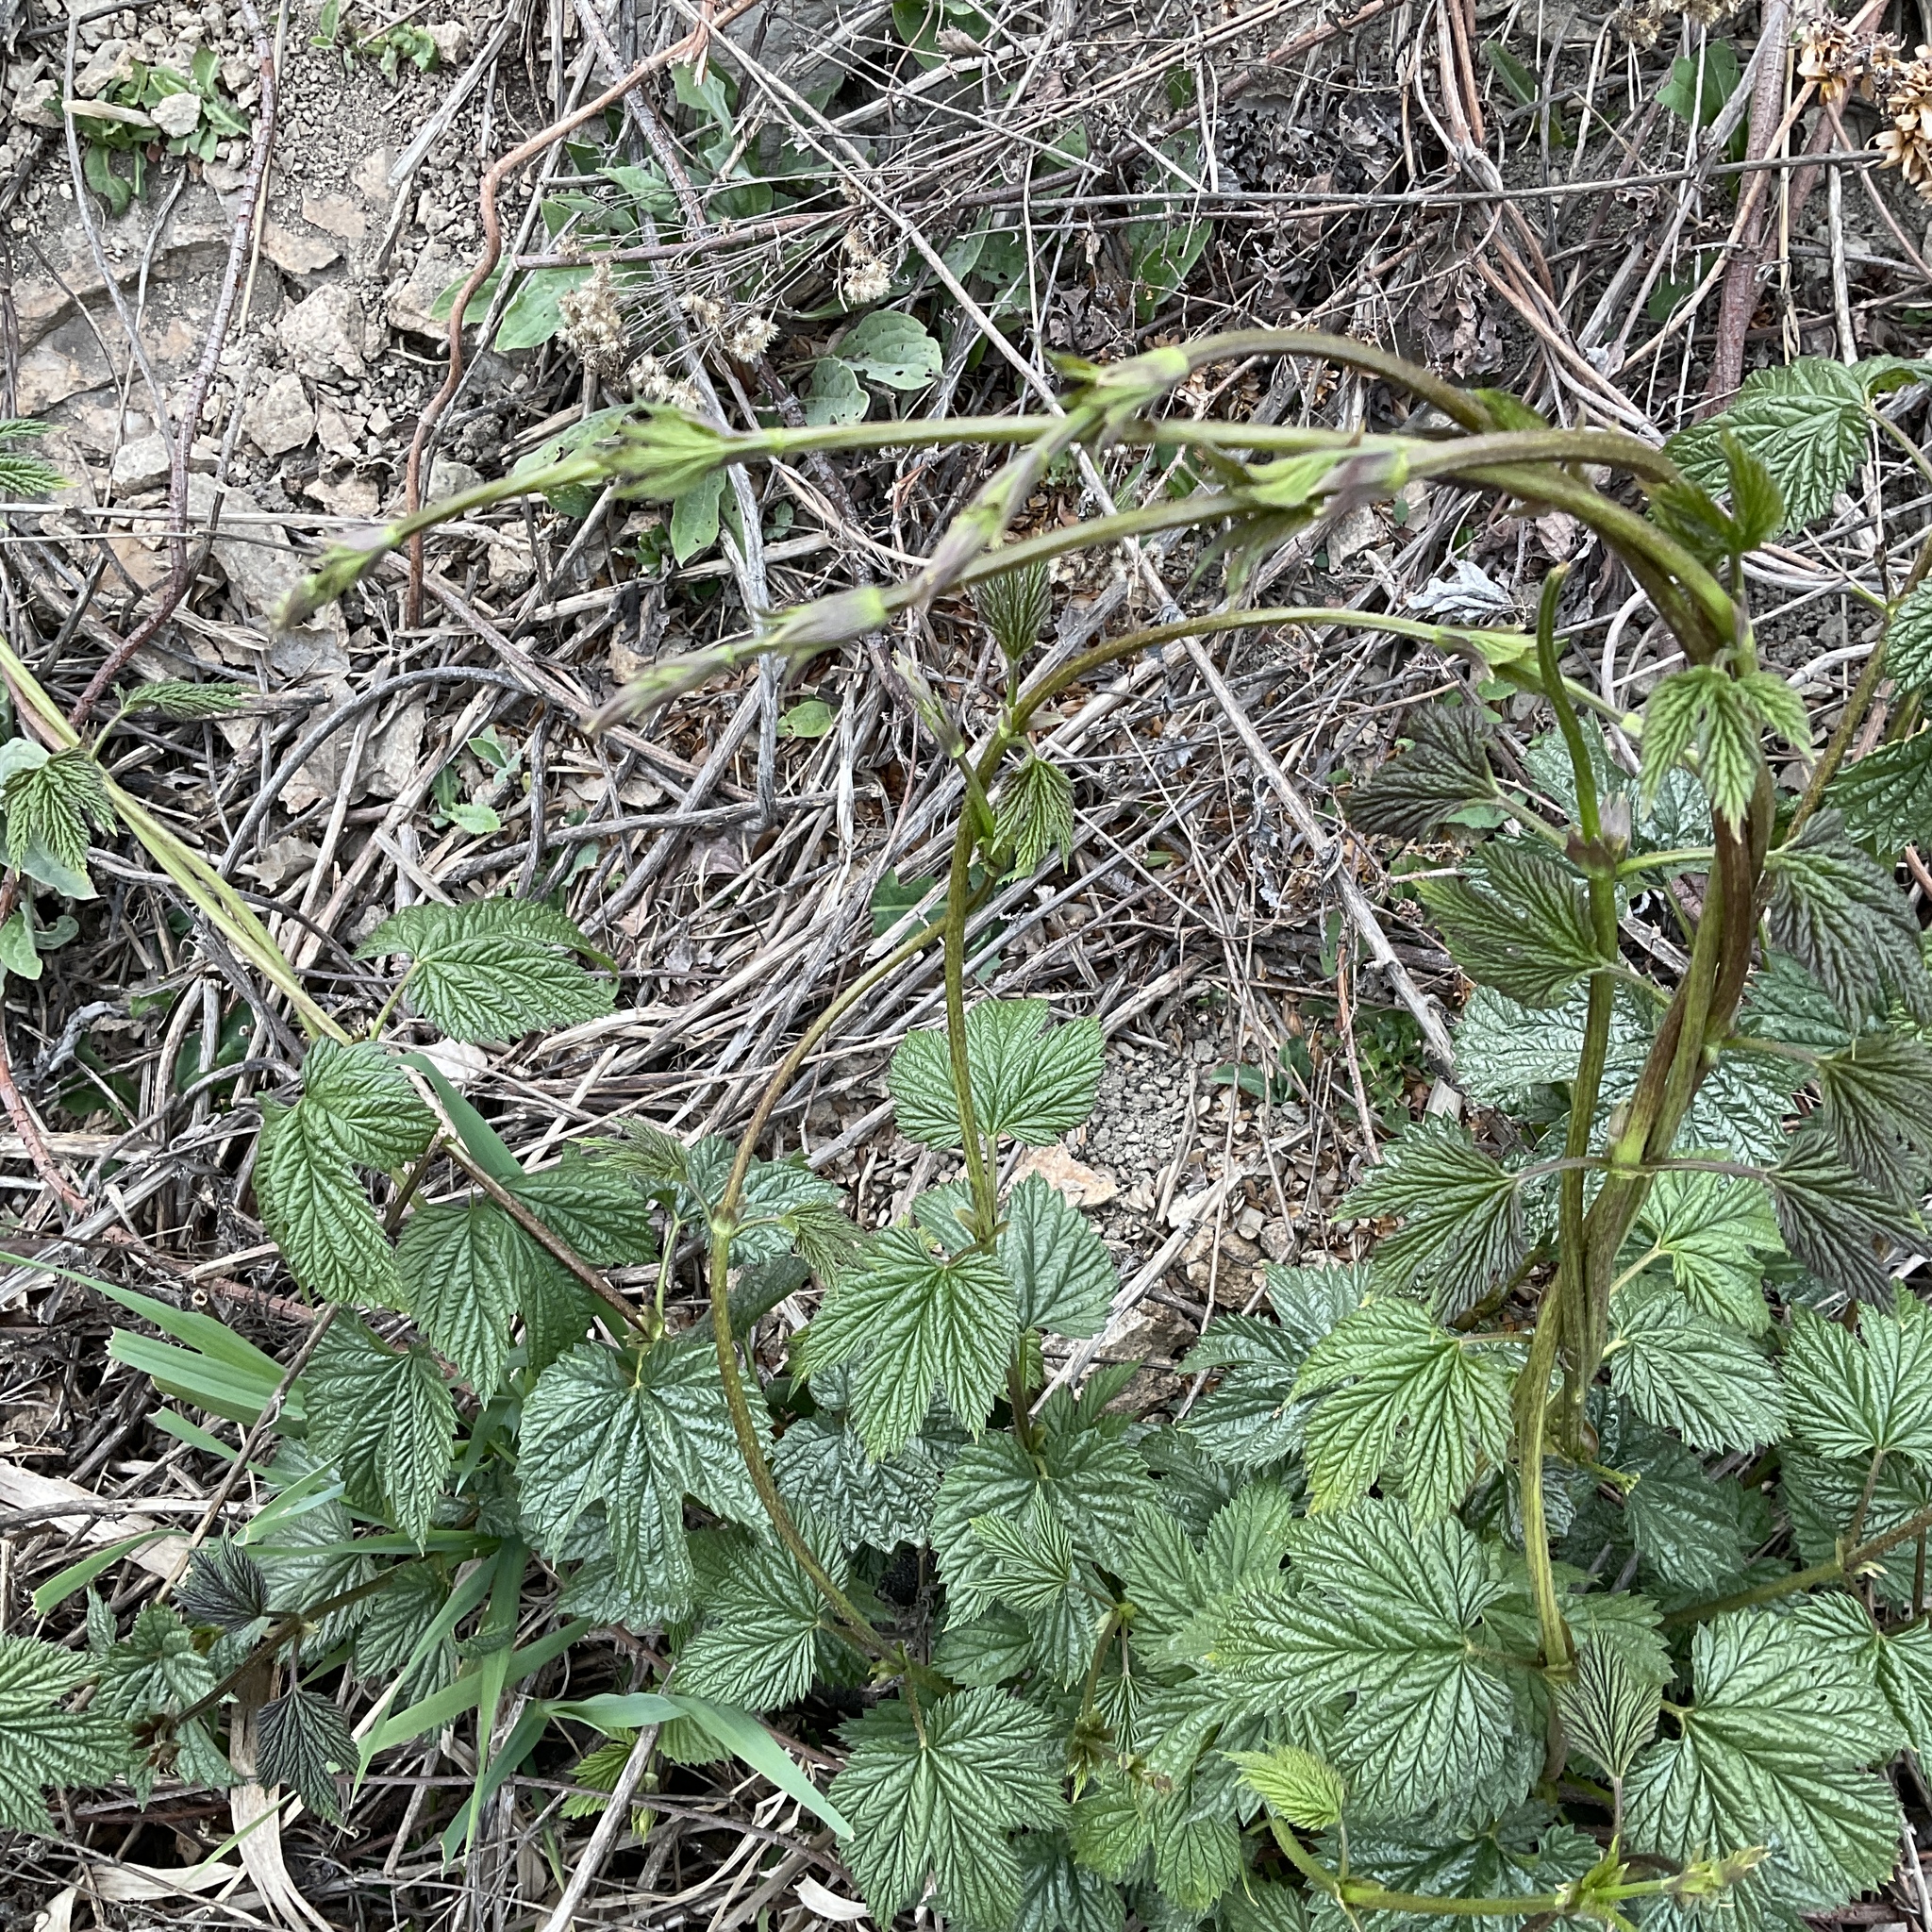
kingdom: Plantae
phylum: Tracheophyta
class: Magnoliopsida
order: Rosales
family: Cannabaceae
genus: Humulus
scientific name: Humulus lupulus
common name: Hop
